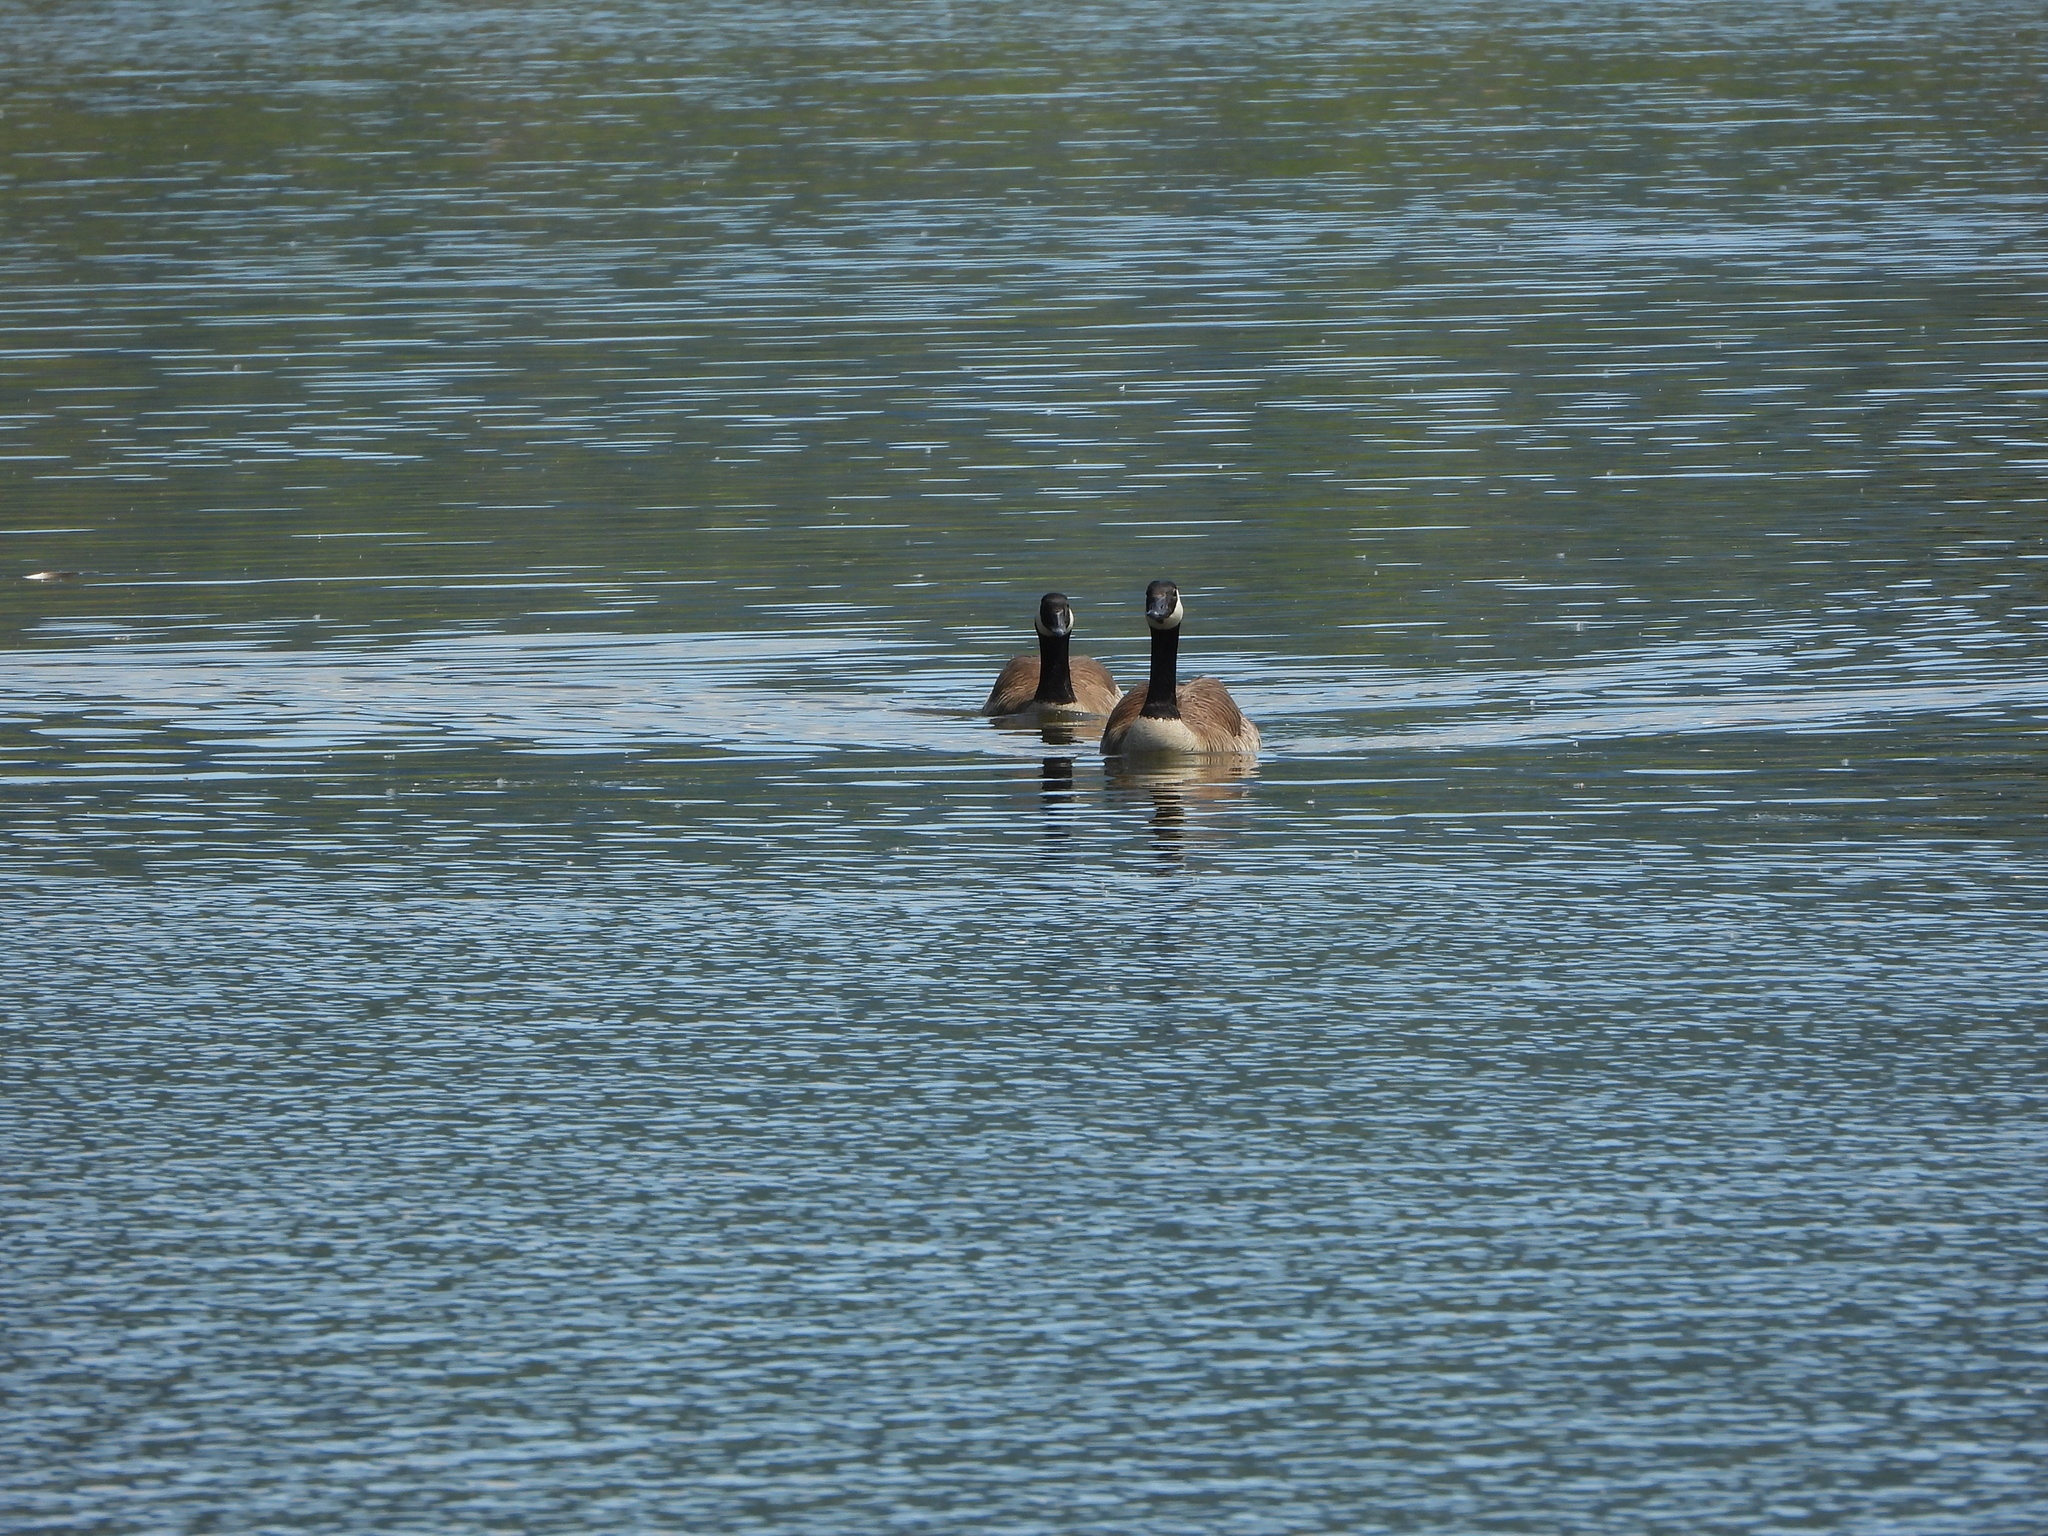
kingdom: Animalia
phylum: Chordata
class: Aves
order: Anseriformes
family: Anatidae
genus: Branta
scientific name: Branta canadensis
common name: Canada goose
